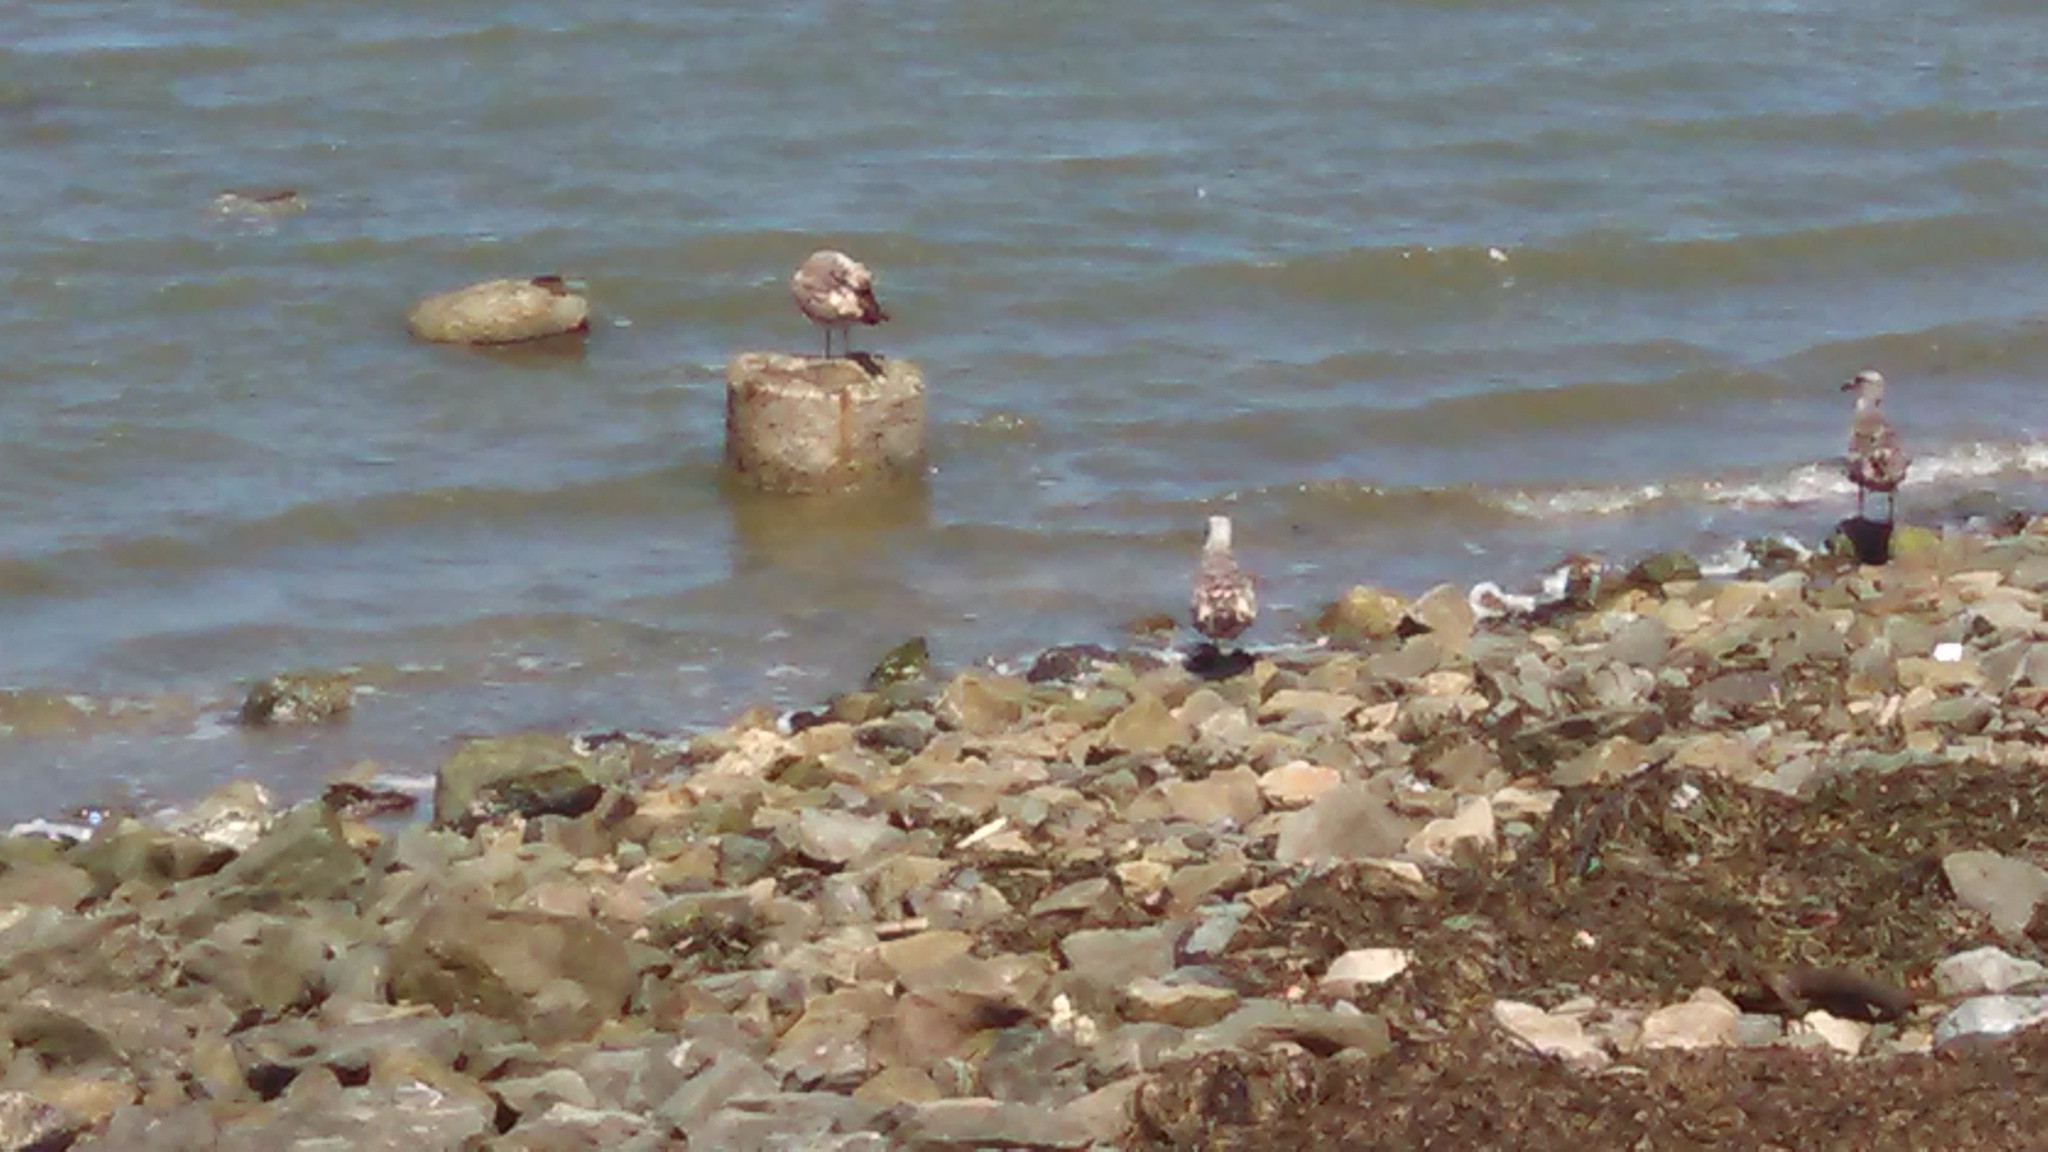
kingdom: Animalia
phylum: Chordata
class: Aves
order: Charadriiformes
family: Laridae
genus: Larus
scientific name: Larus
